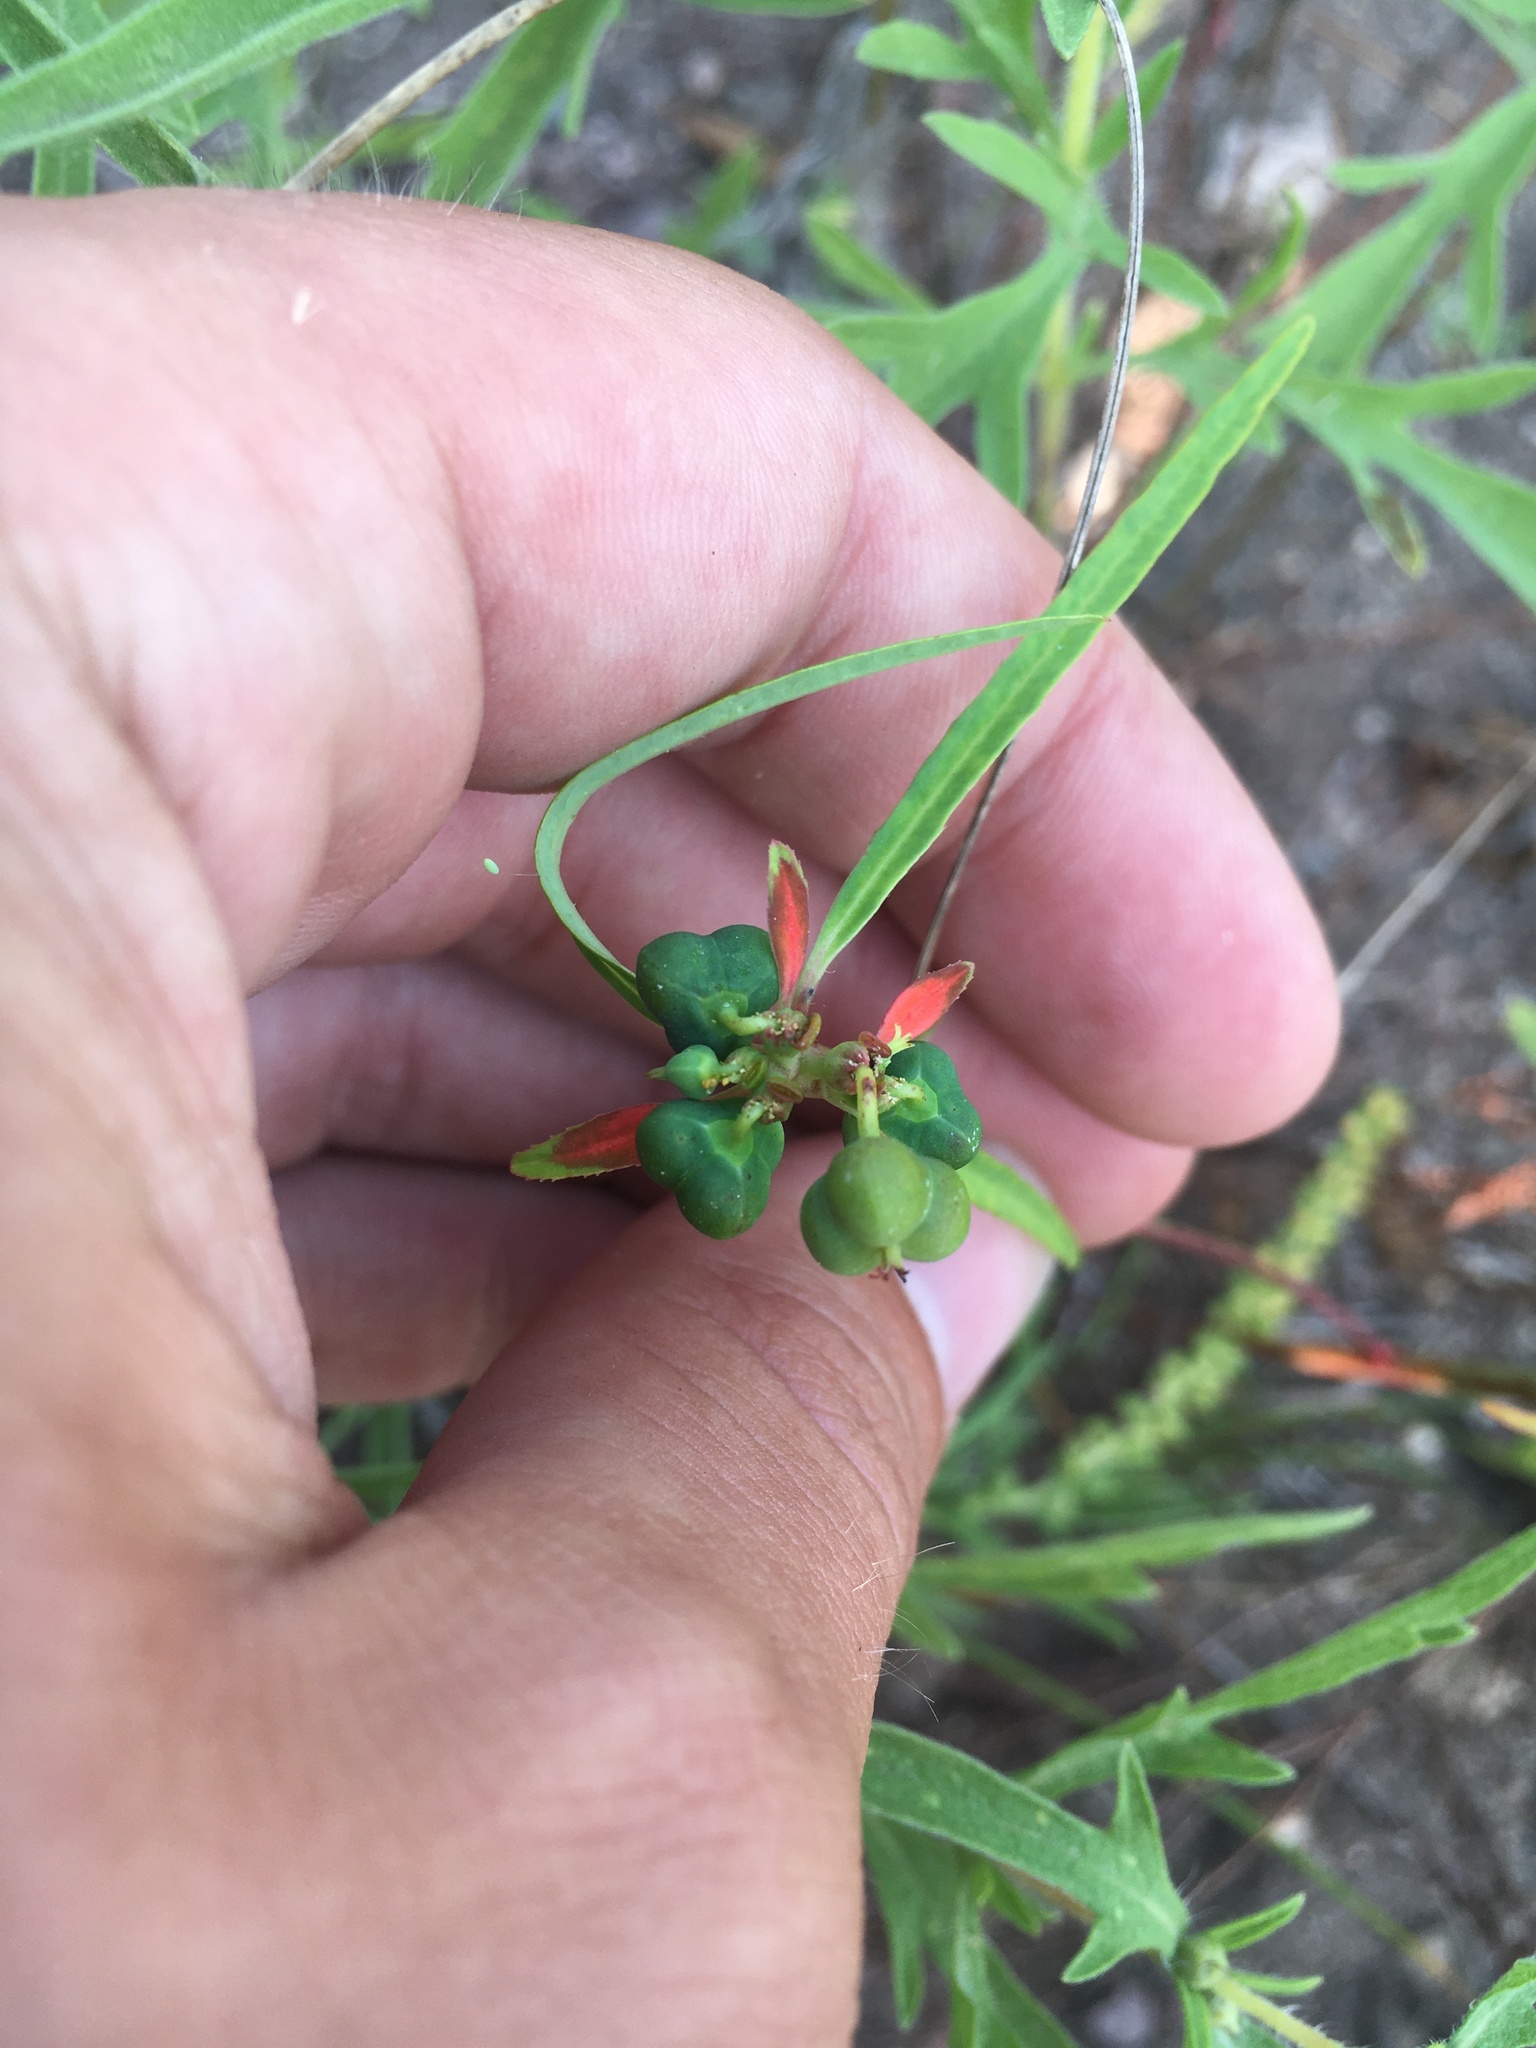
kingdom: Plantae
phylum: Tracheophyta
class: Magnoliopsida
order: Malpighiales
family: Euphorbiaceae
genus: Euphorbia
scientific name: Euphorbia heterophylla
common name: Mexican fireplant
